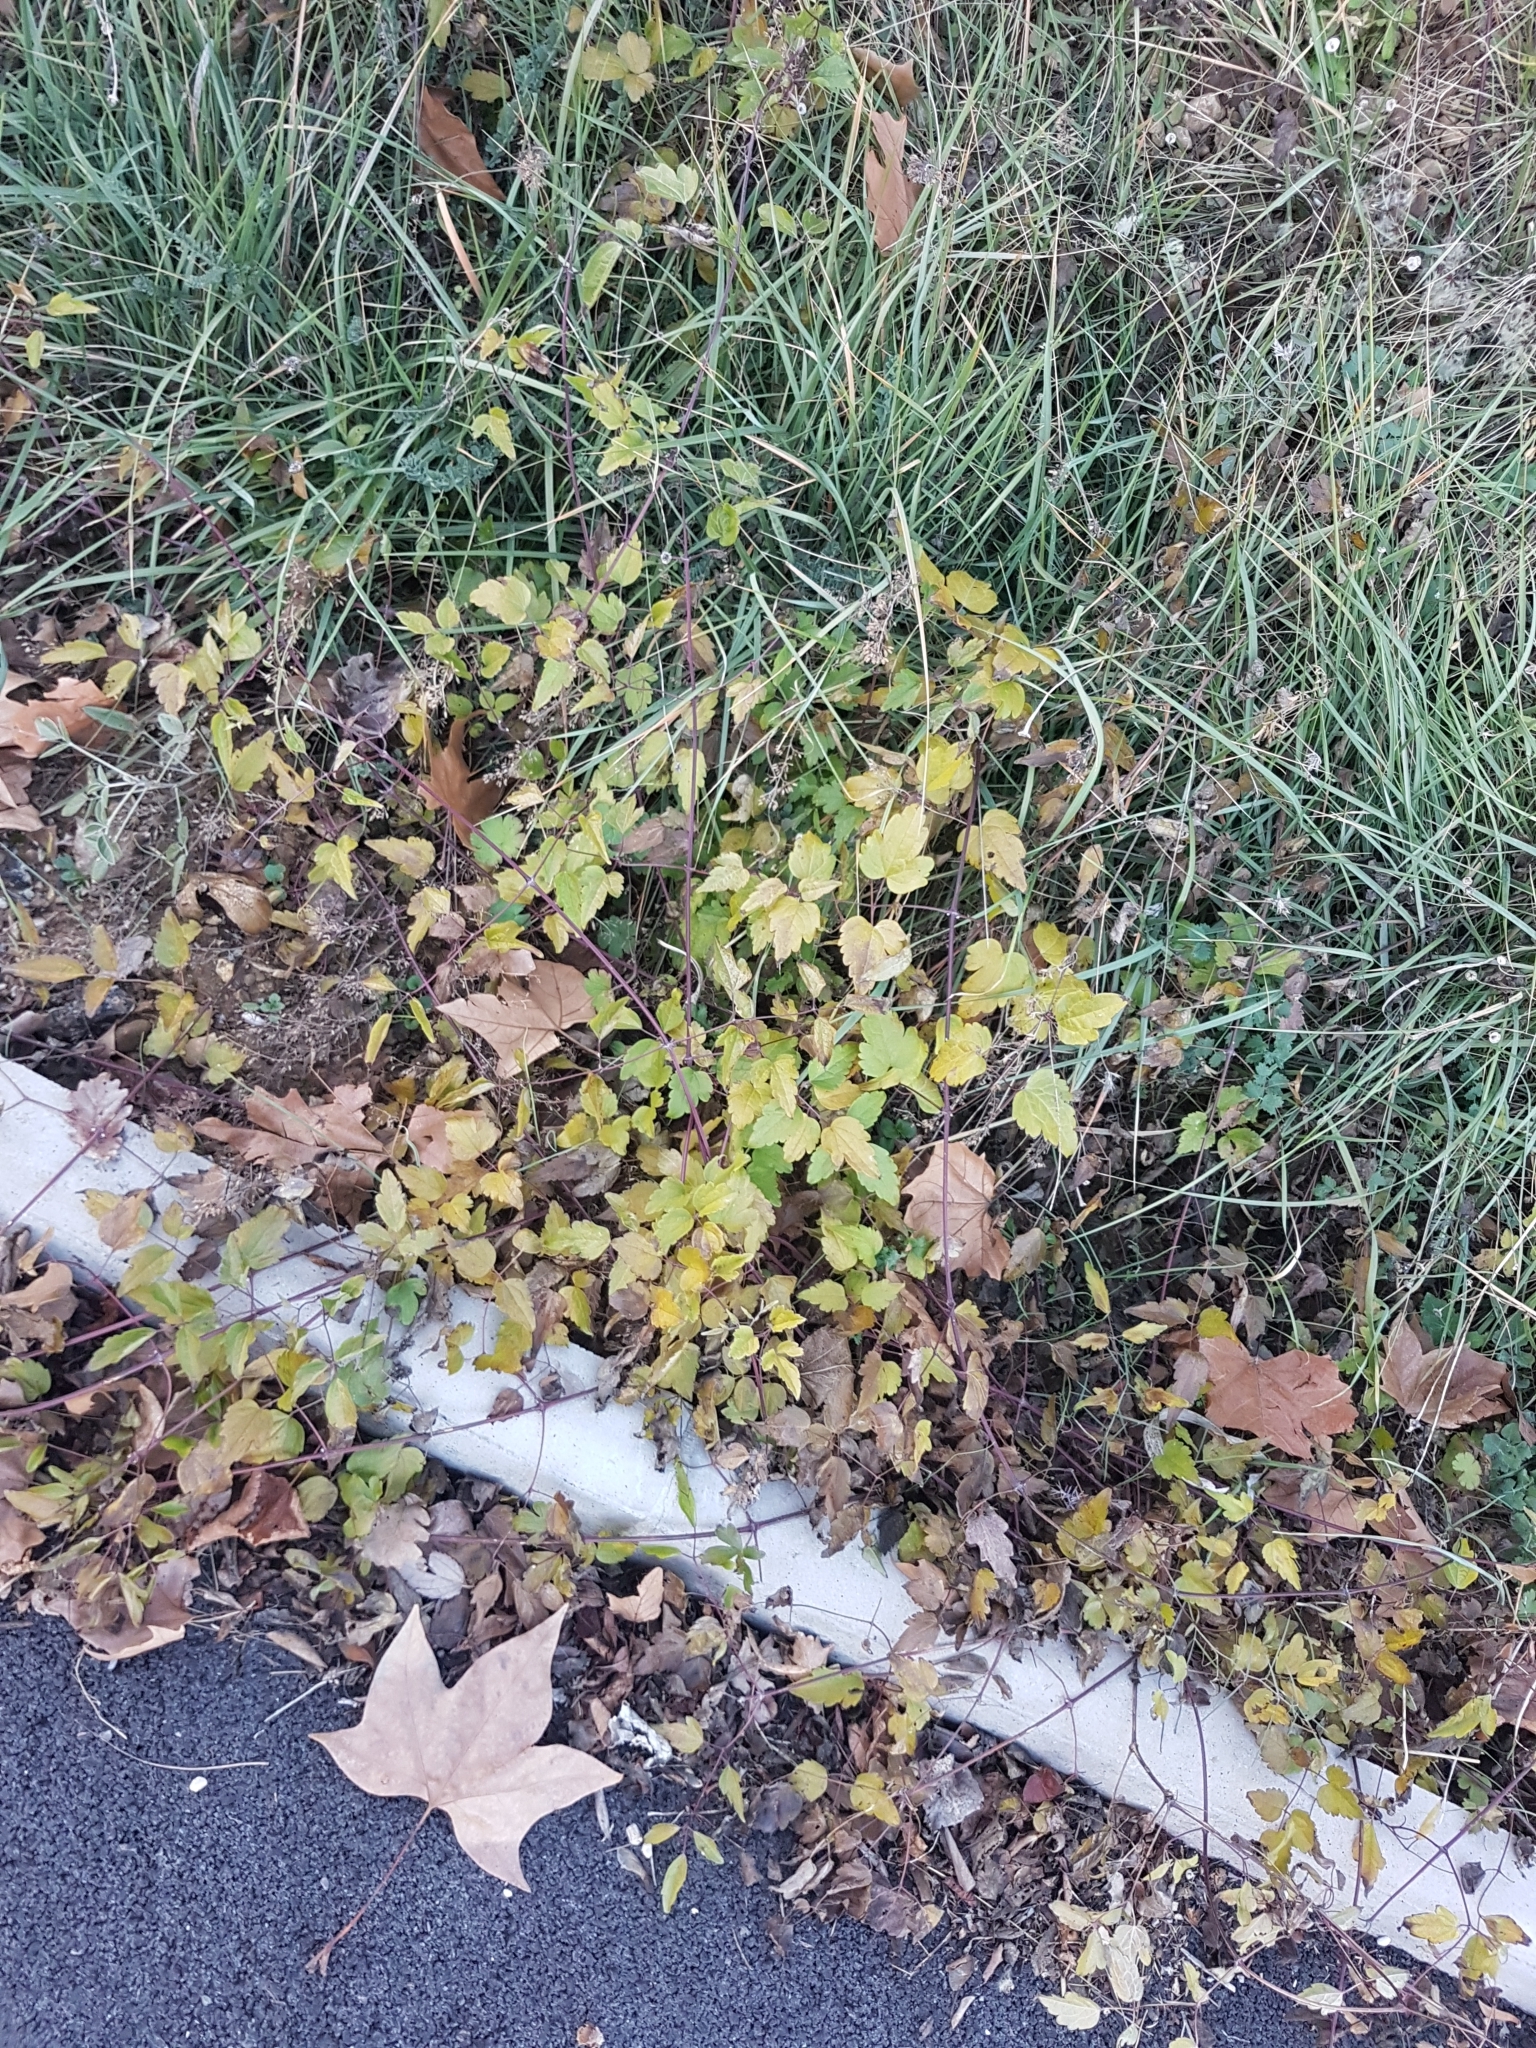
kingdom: Plantae
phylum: Tracheophyta
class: Magnoliopsida
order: Ranunculales
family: Ranunculaceae
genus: Clematis
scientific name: Clematis vitalba
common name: Evergreen clematis
